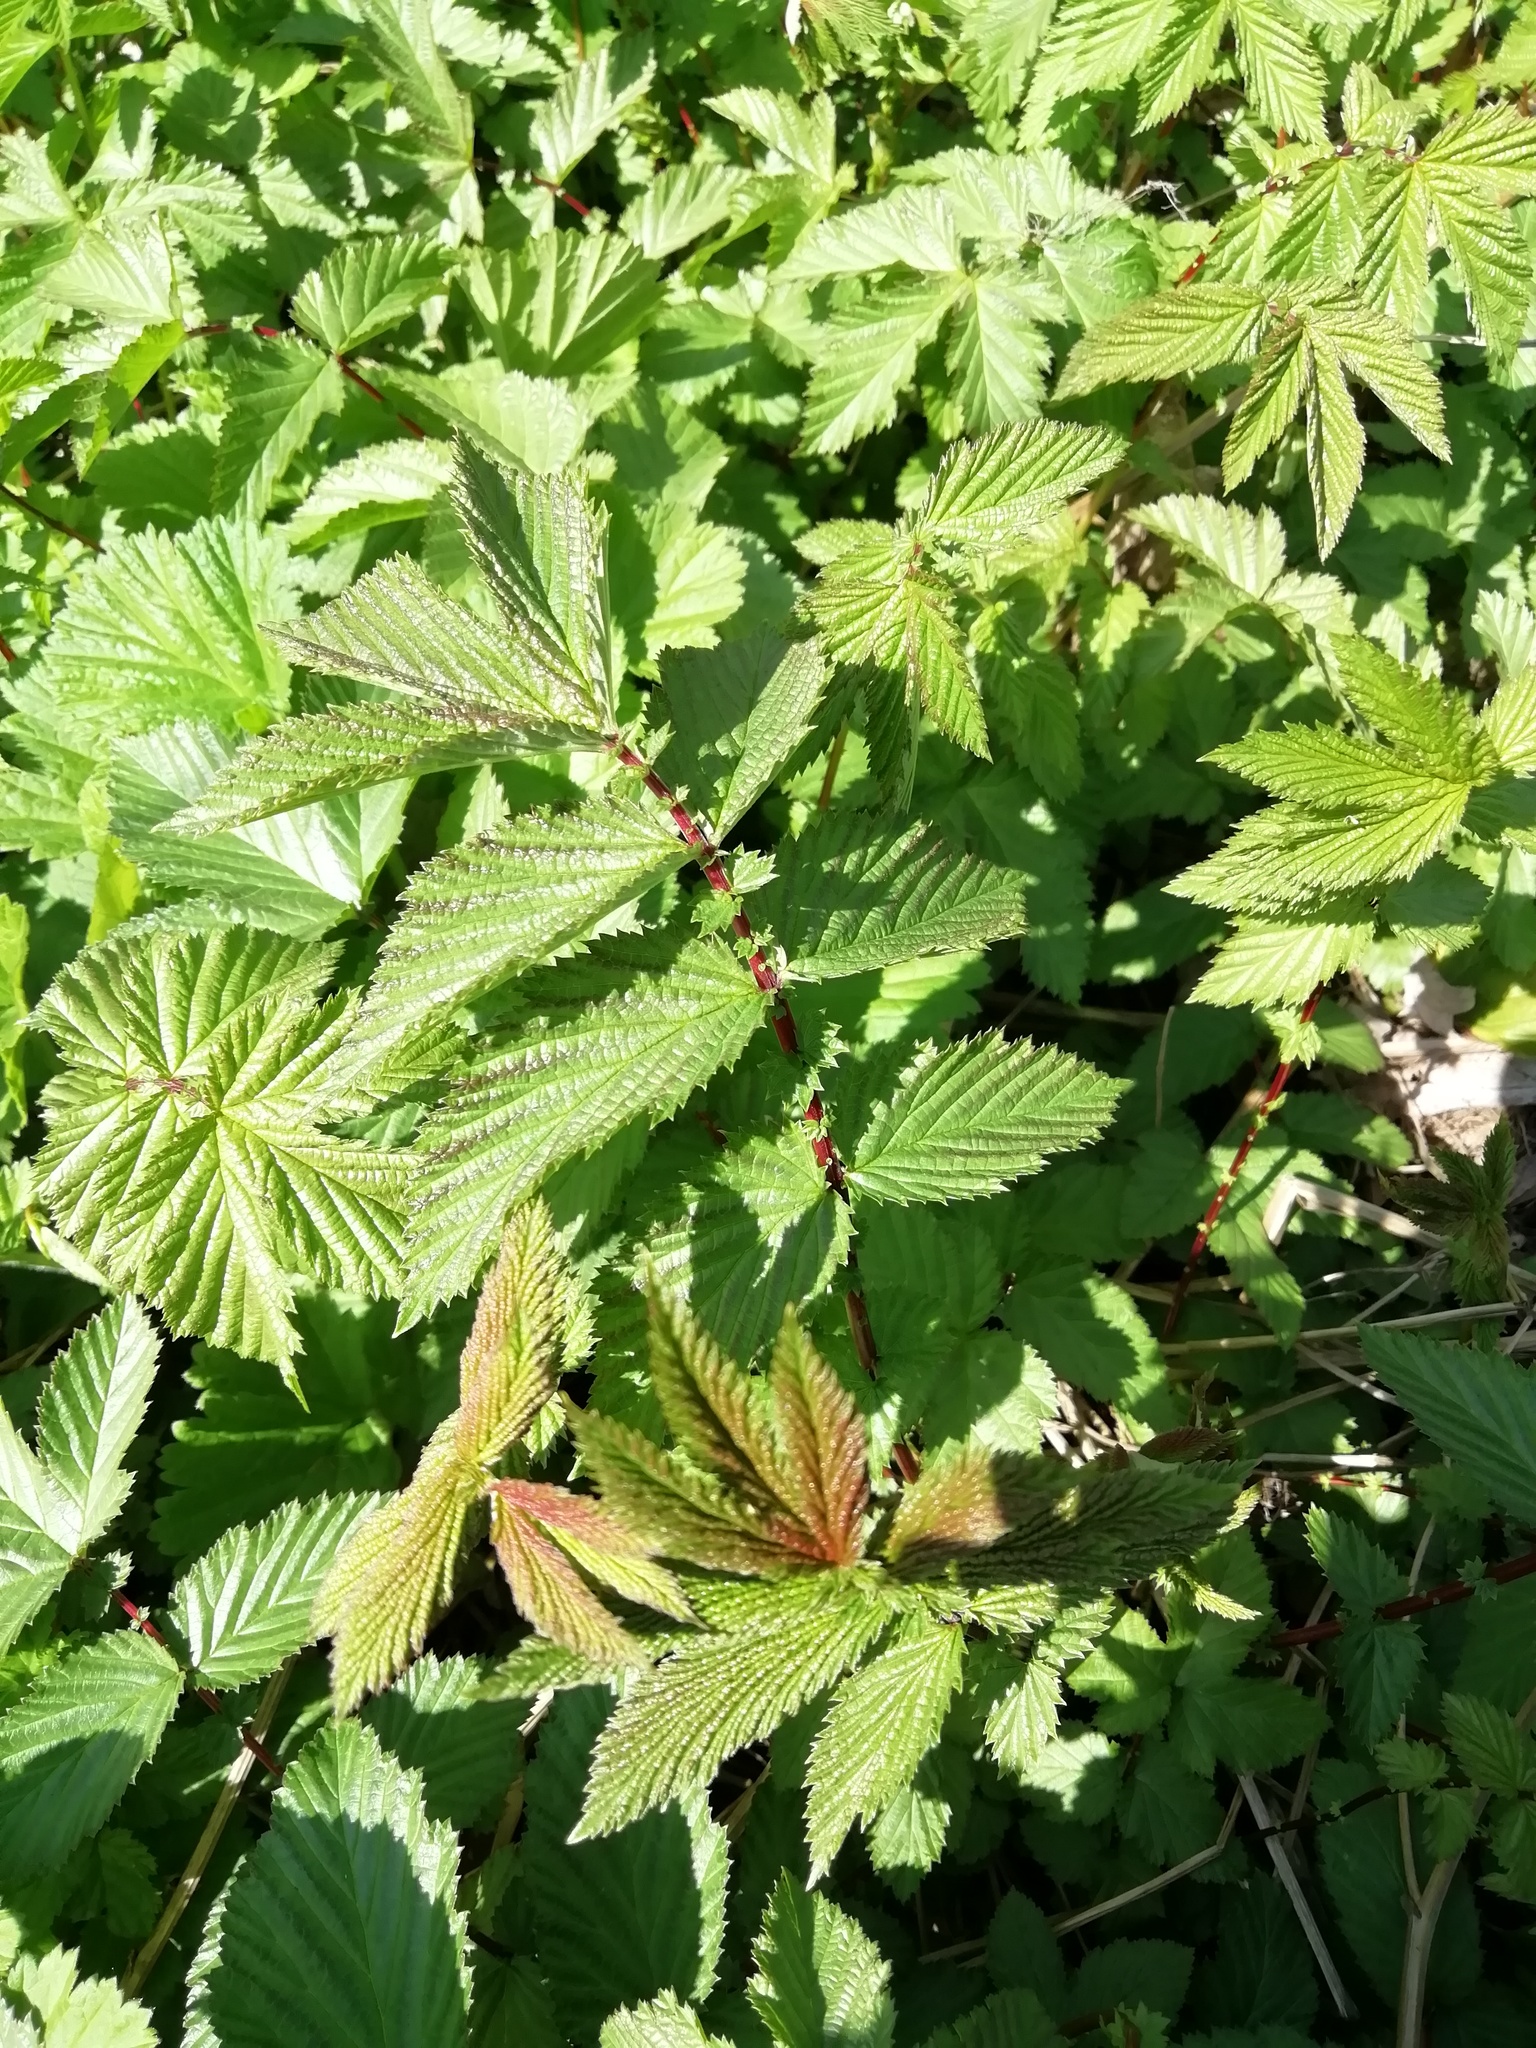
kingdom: Plantae
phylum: Tracheophyta
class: Magnoliopsida
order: Rosales
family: Rosaceae
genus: Filipendula
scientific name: Filipendula ulmaria
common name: Meadowsweet
